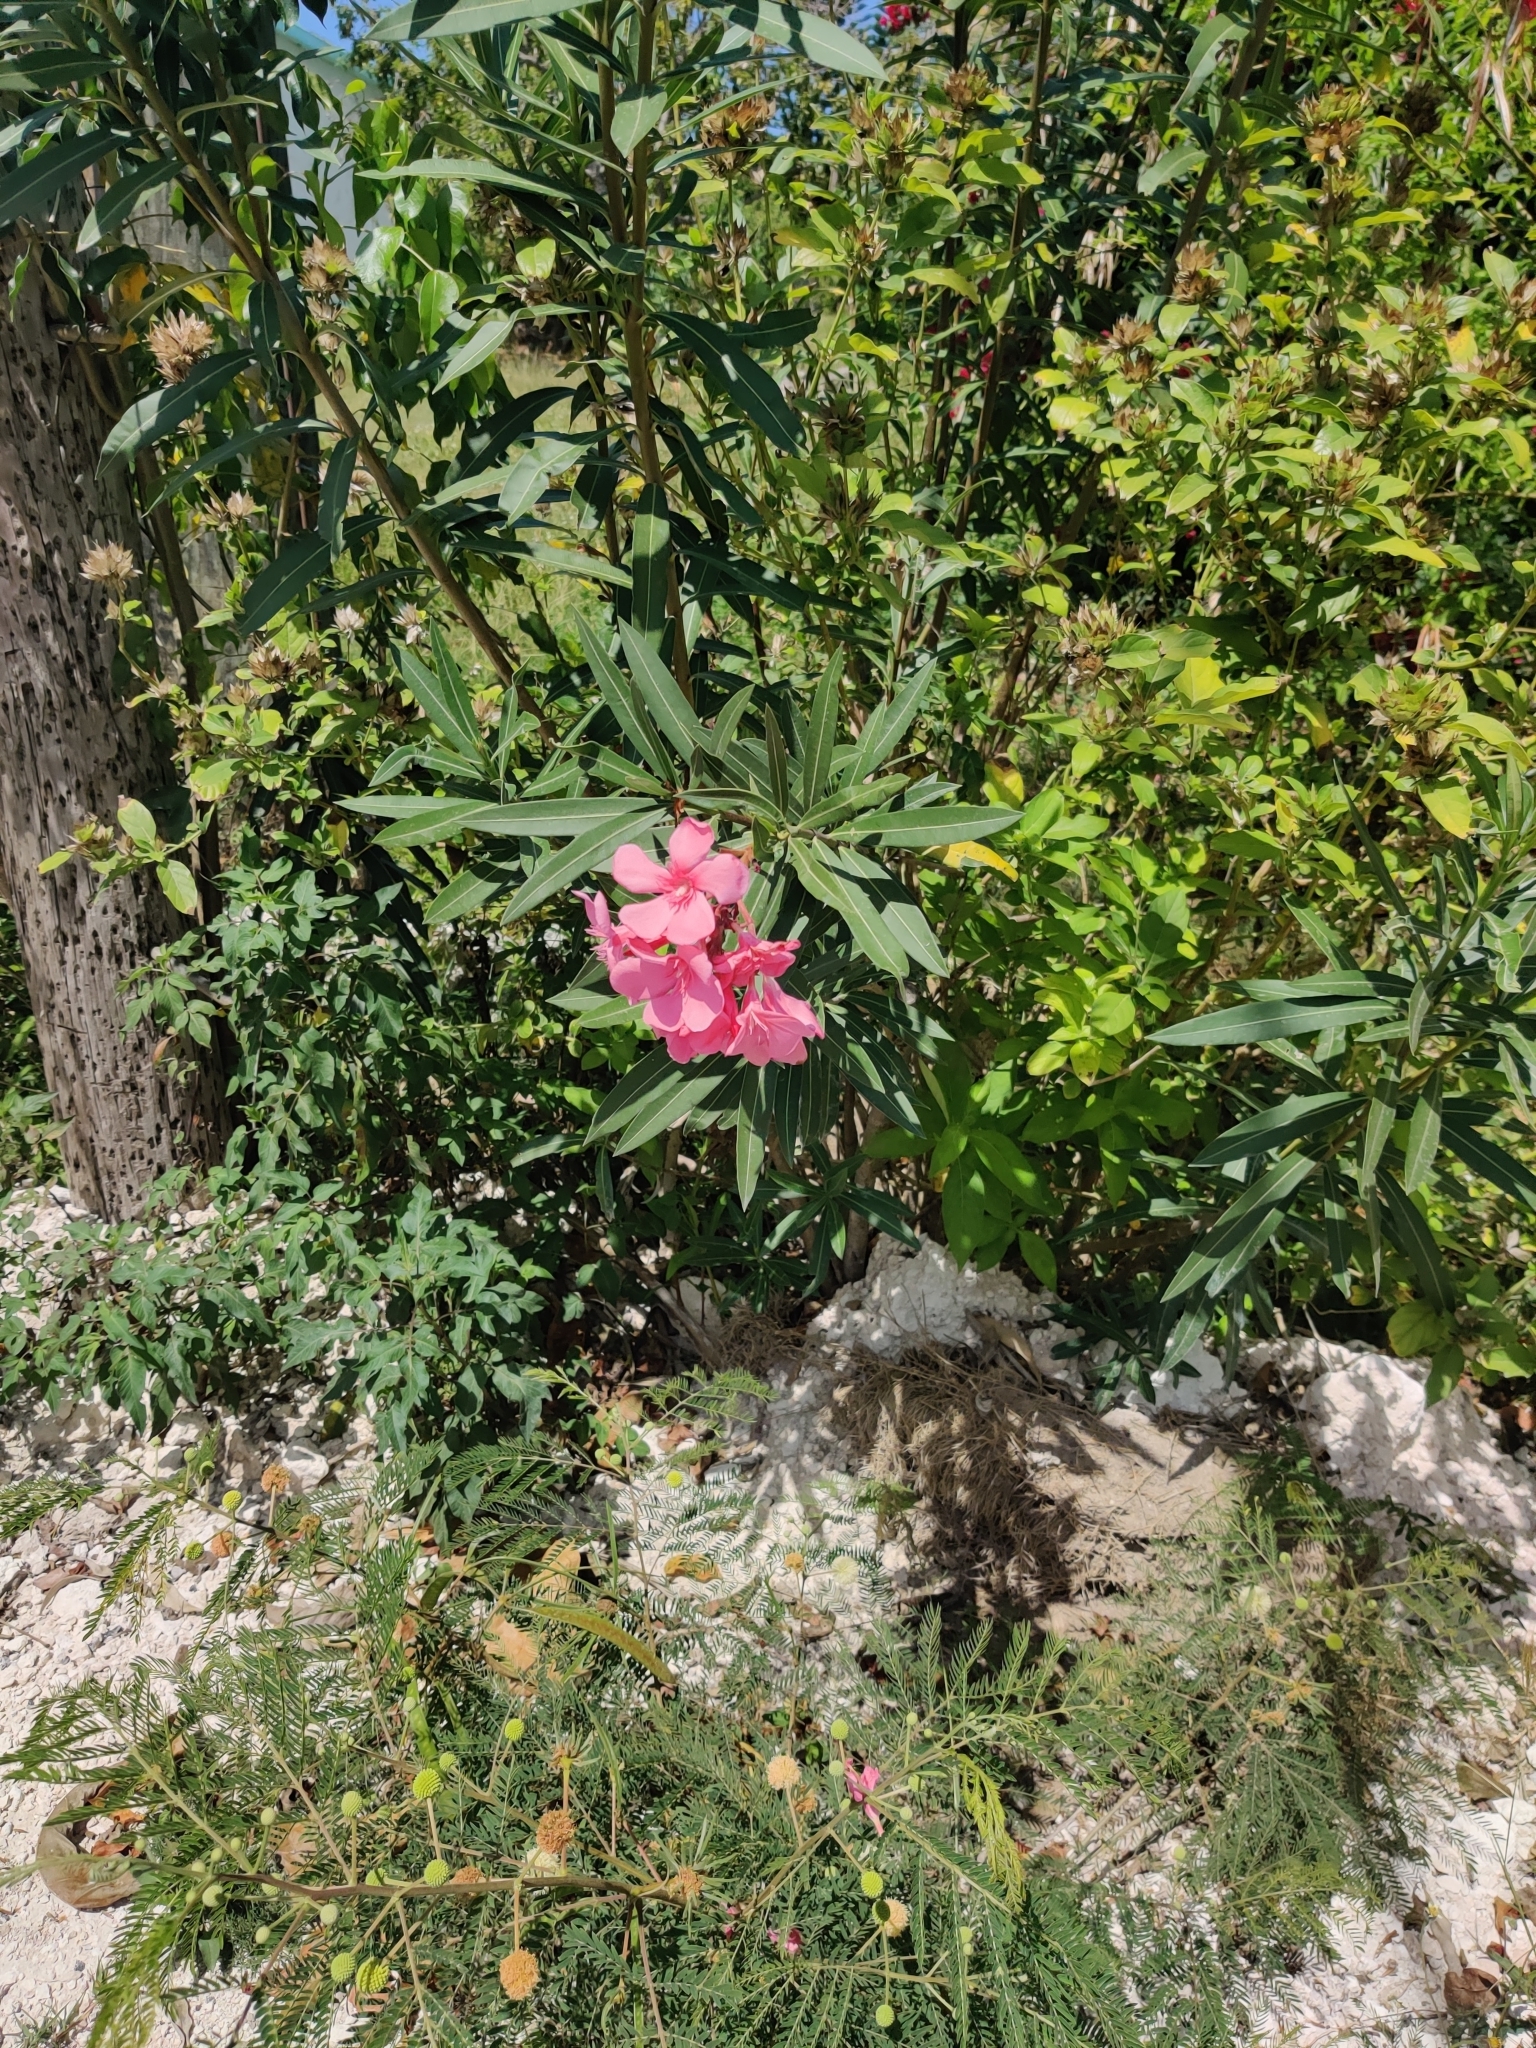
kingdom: Plantae
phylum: Tracheophyta
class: Magnoliopsida
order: Gentianales
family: Apocynaceae
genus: Nerium
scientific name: Nerium oleander
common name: Oleander
